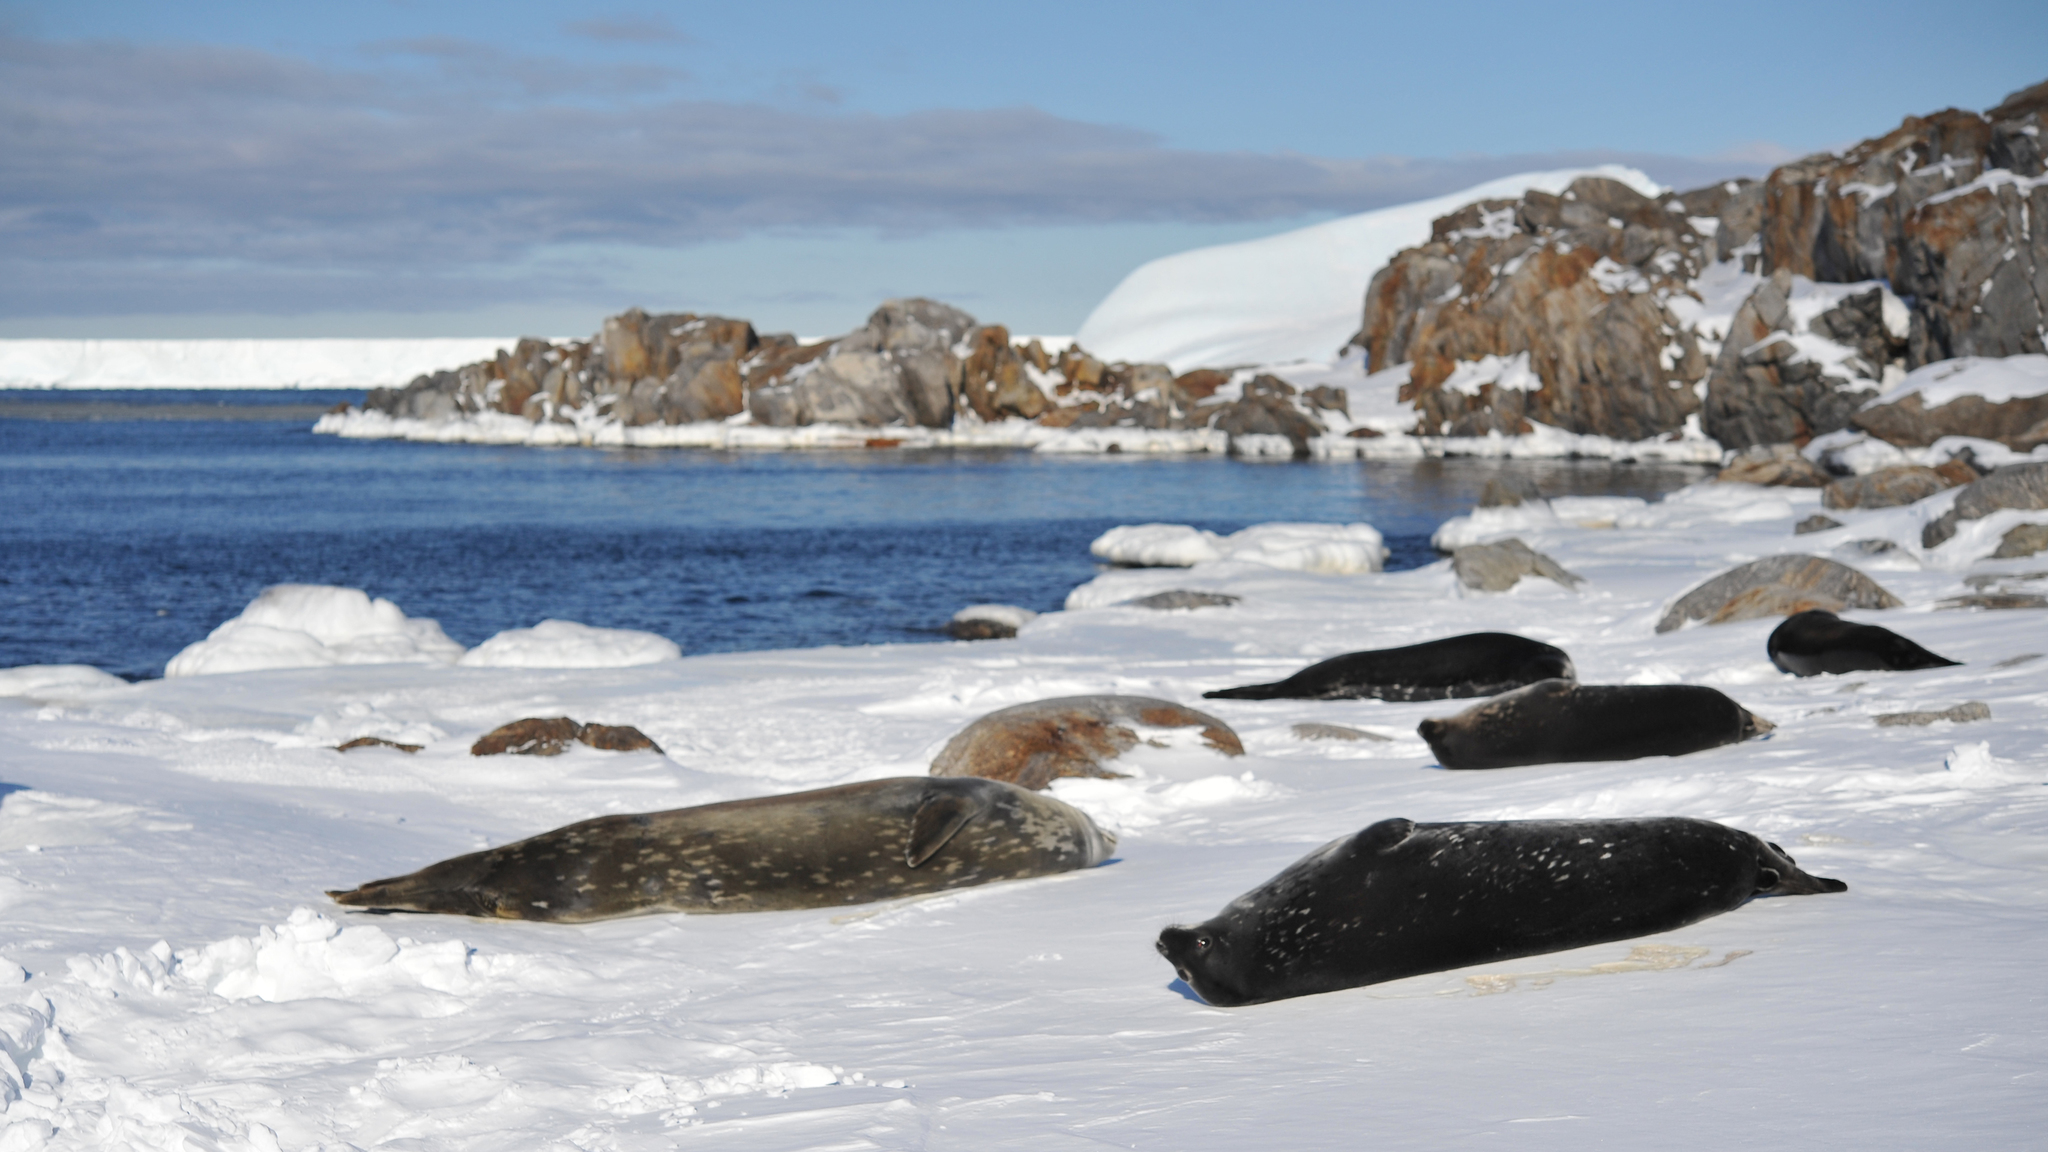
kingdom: Animalia
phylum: Chordata
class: Mammalia
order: Carnivora
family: Phocidae
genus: Leptonychotes
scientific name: Leptonychotes weddellii
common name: Weddell seal
